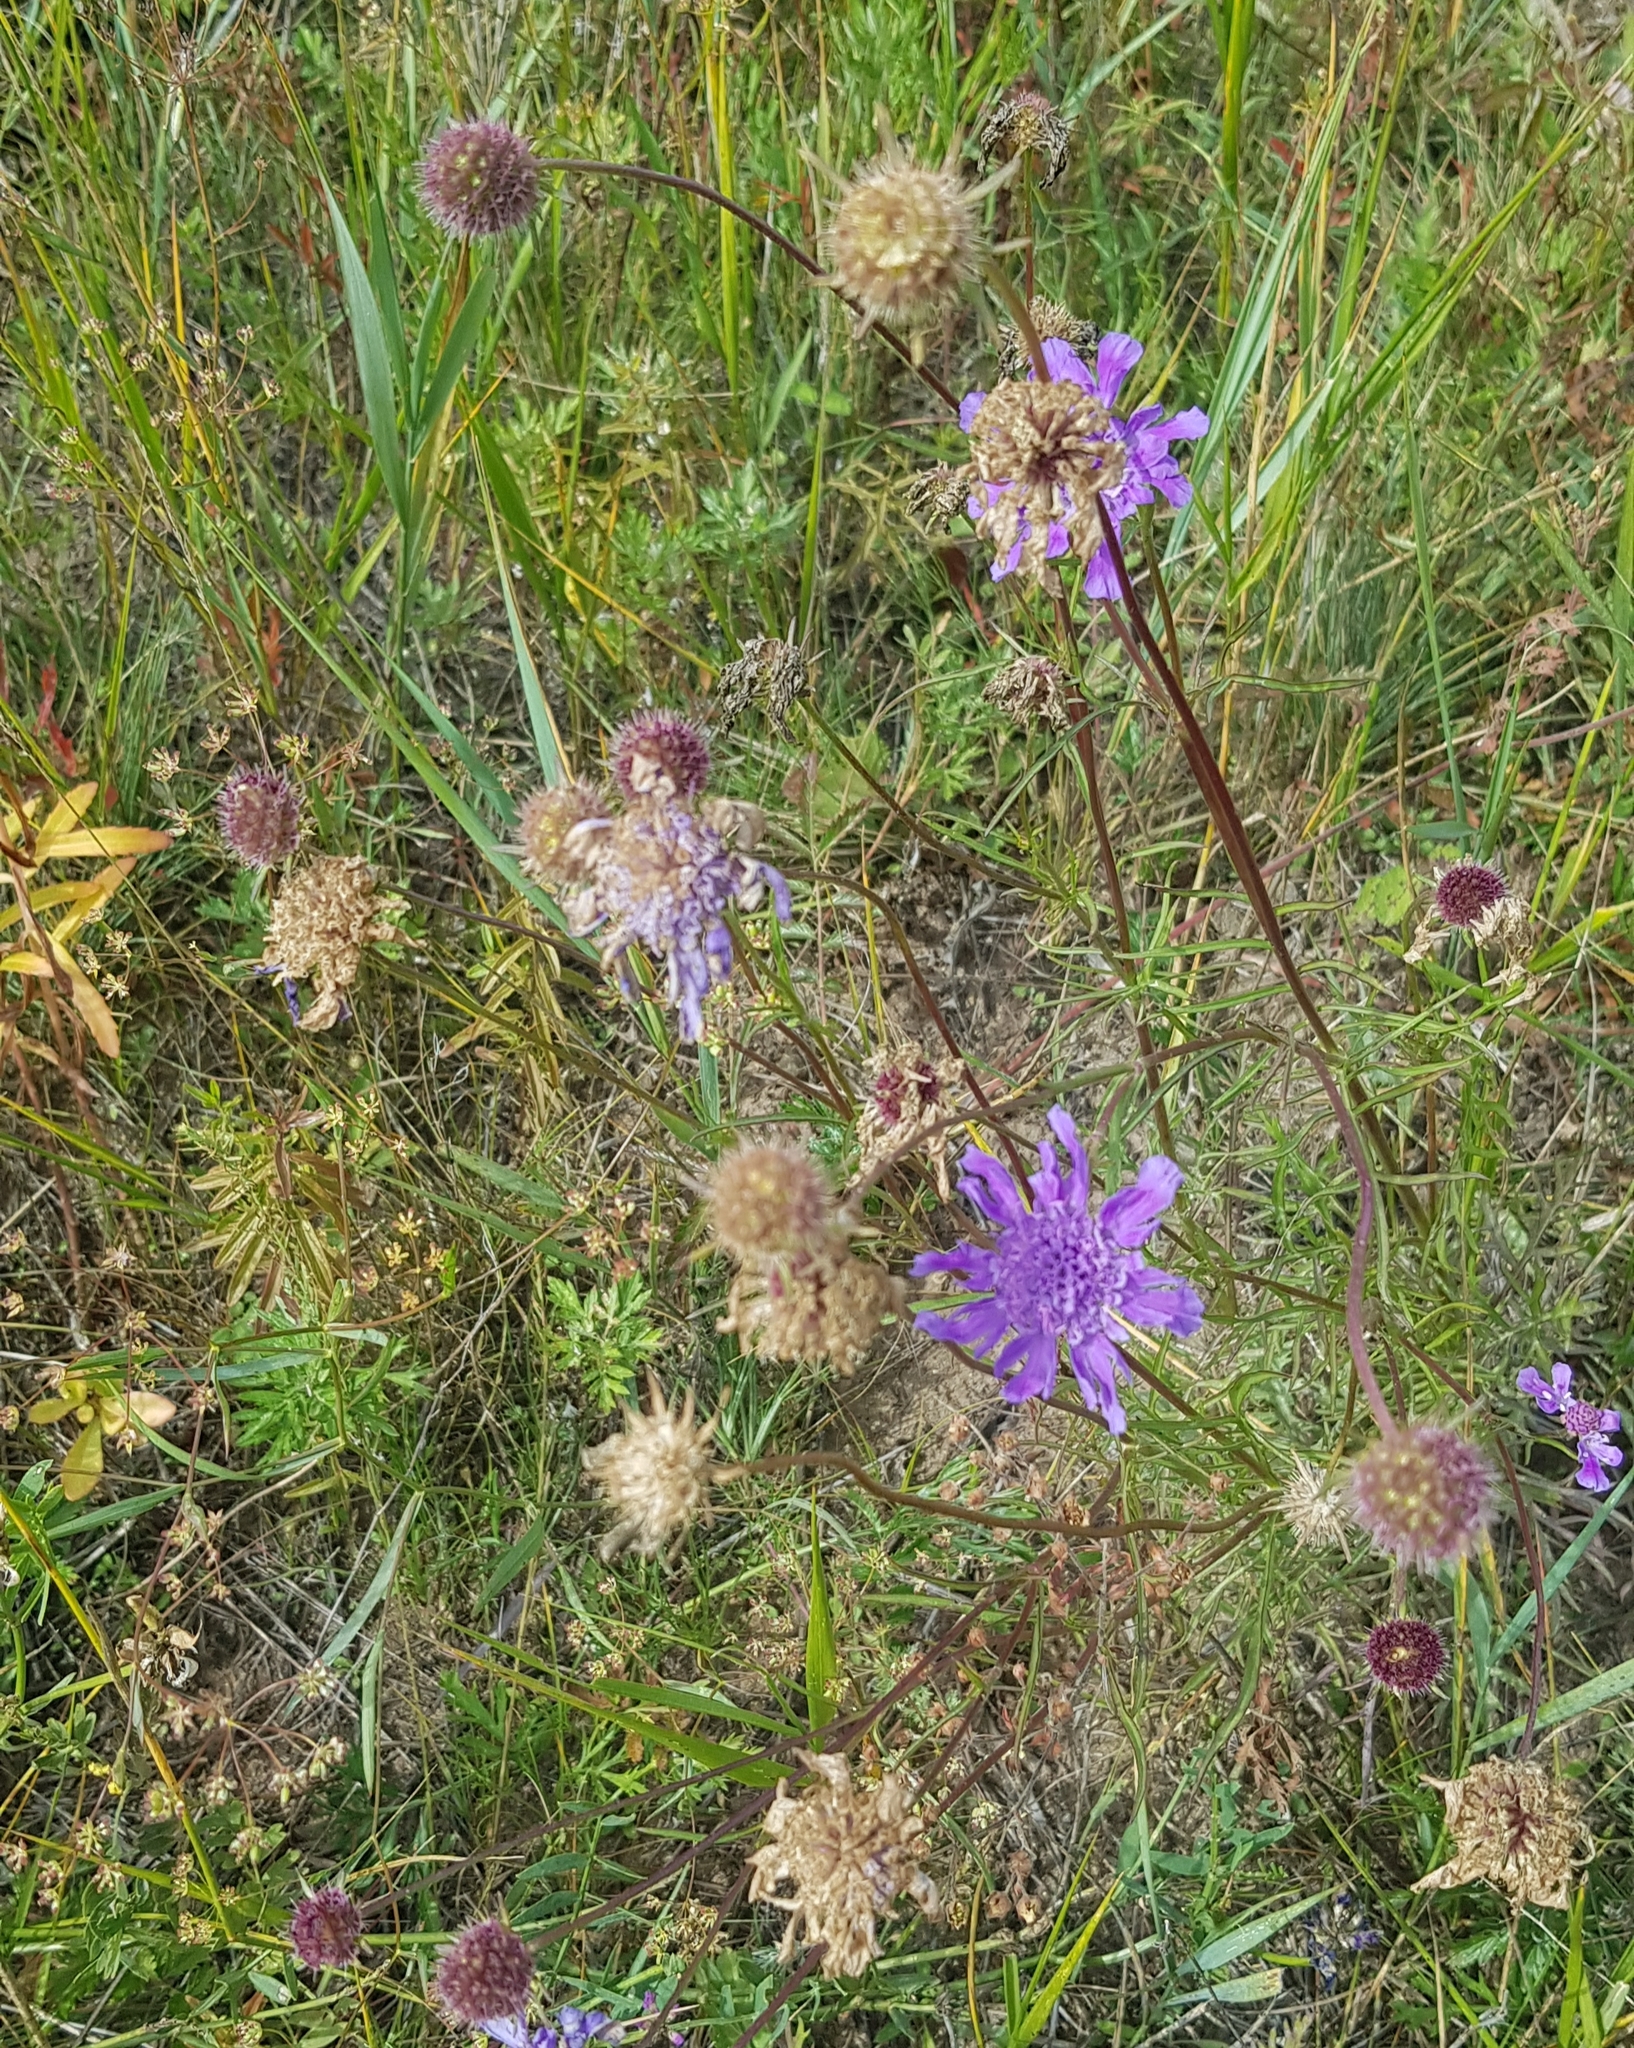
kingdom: Plantae
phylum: Tracheophyta
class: Magnoliopsida
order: Dipsacales
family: Caprifoliaceae
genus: Scabiosa
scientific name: Scabiosa comosa
